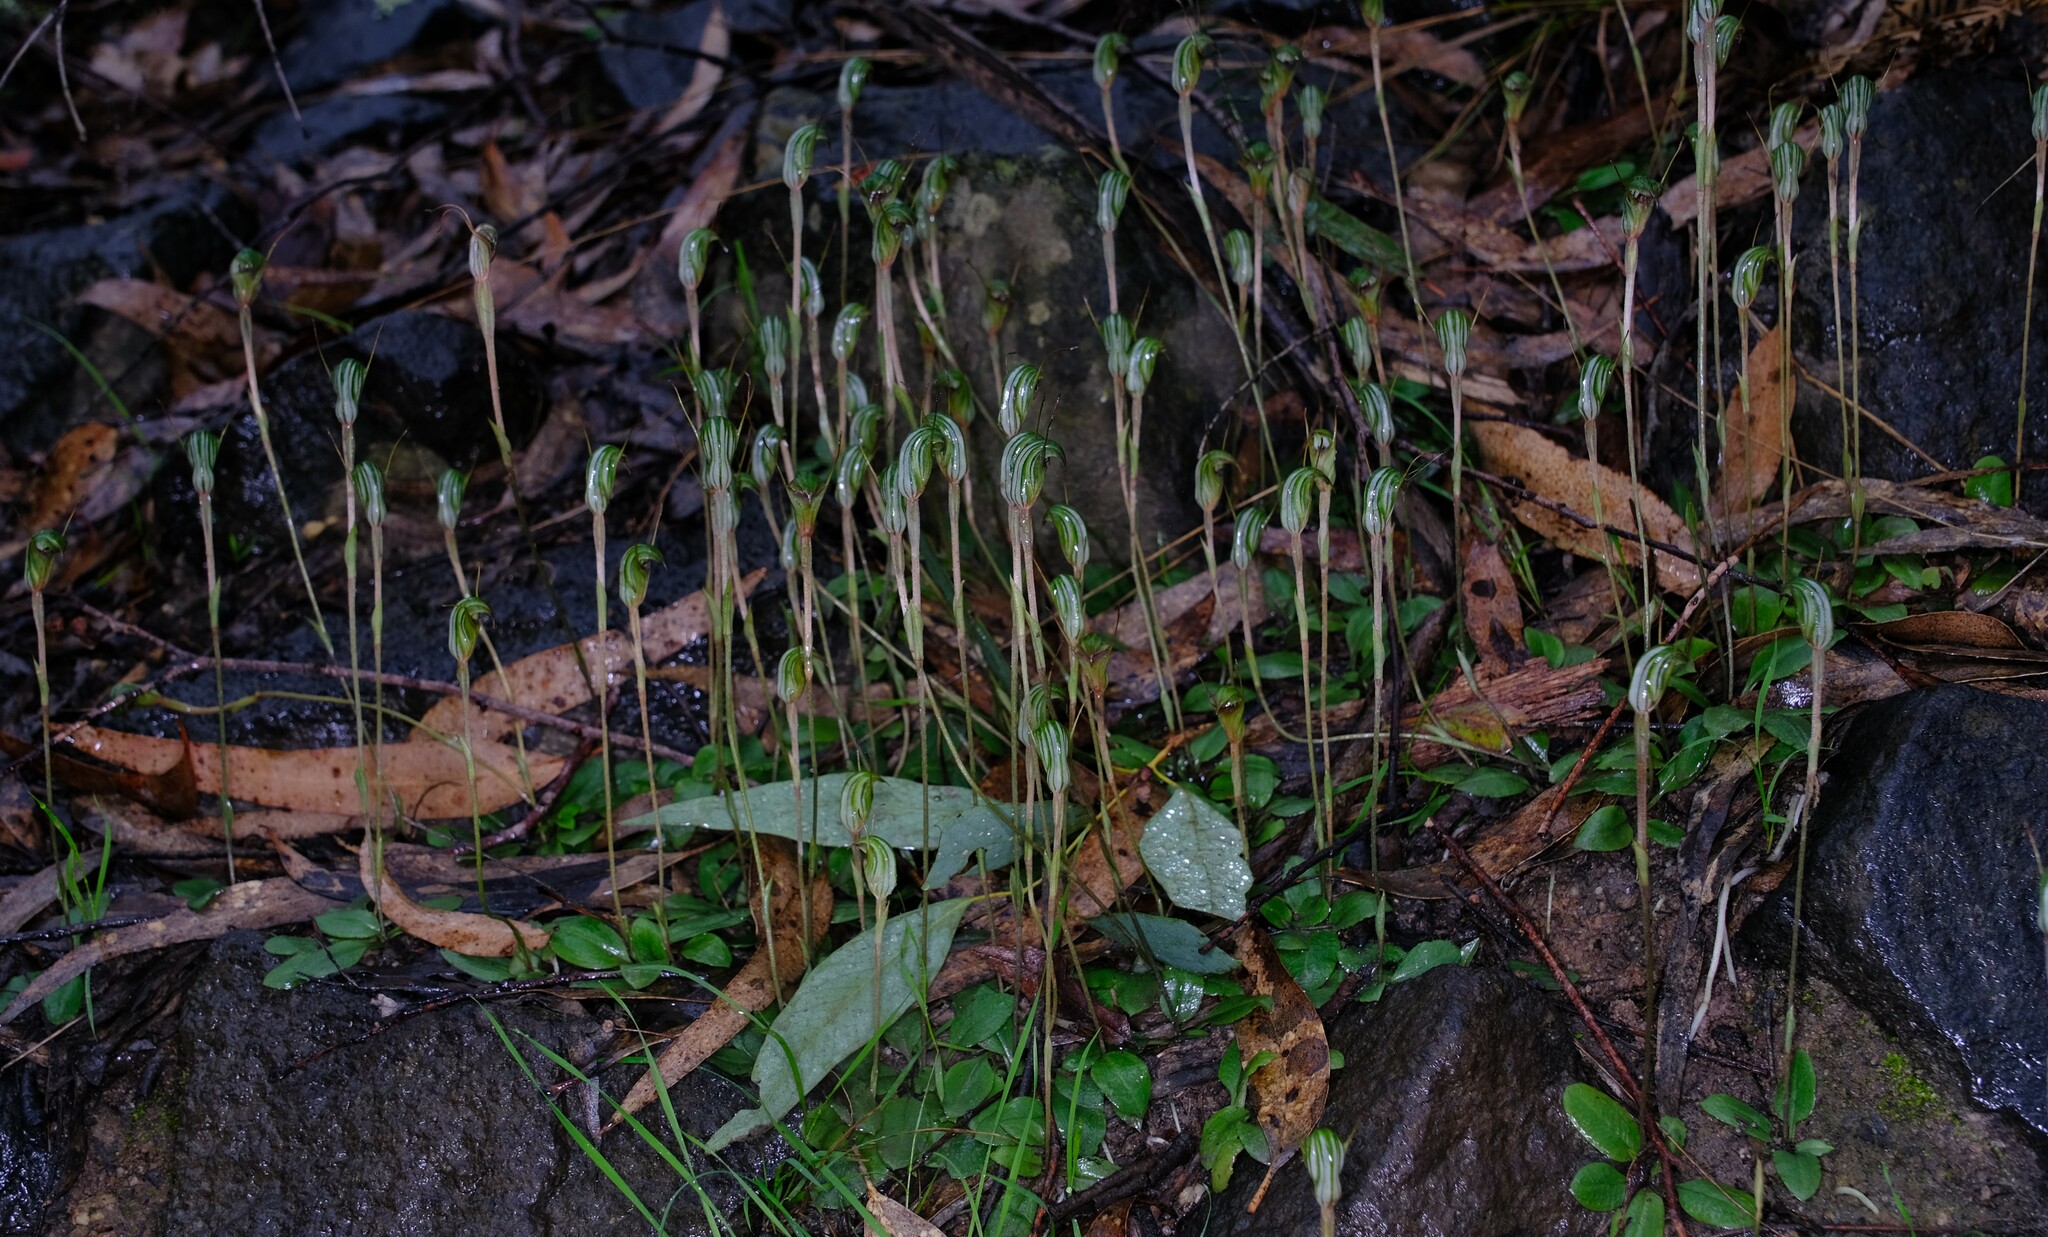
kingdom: Plantae
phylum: Tracheophyta
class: Liliopsida
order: Asparagales
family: Orchidaceae
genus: Pterostylis
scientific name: Pterostylis concinna
